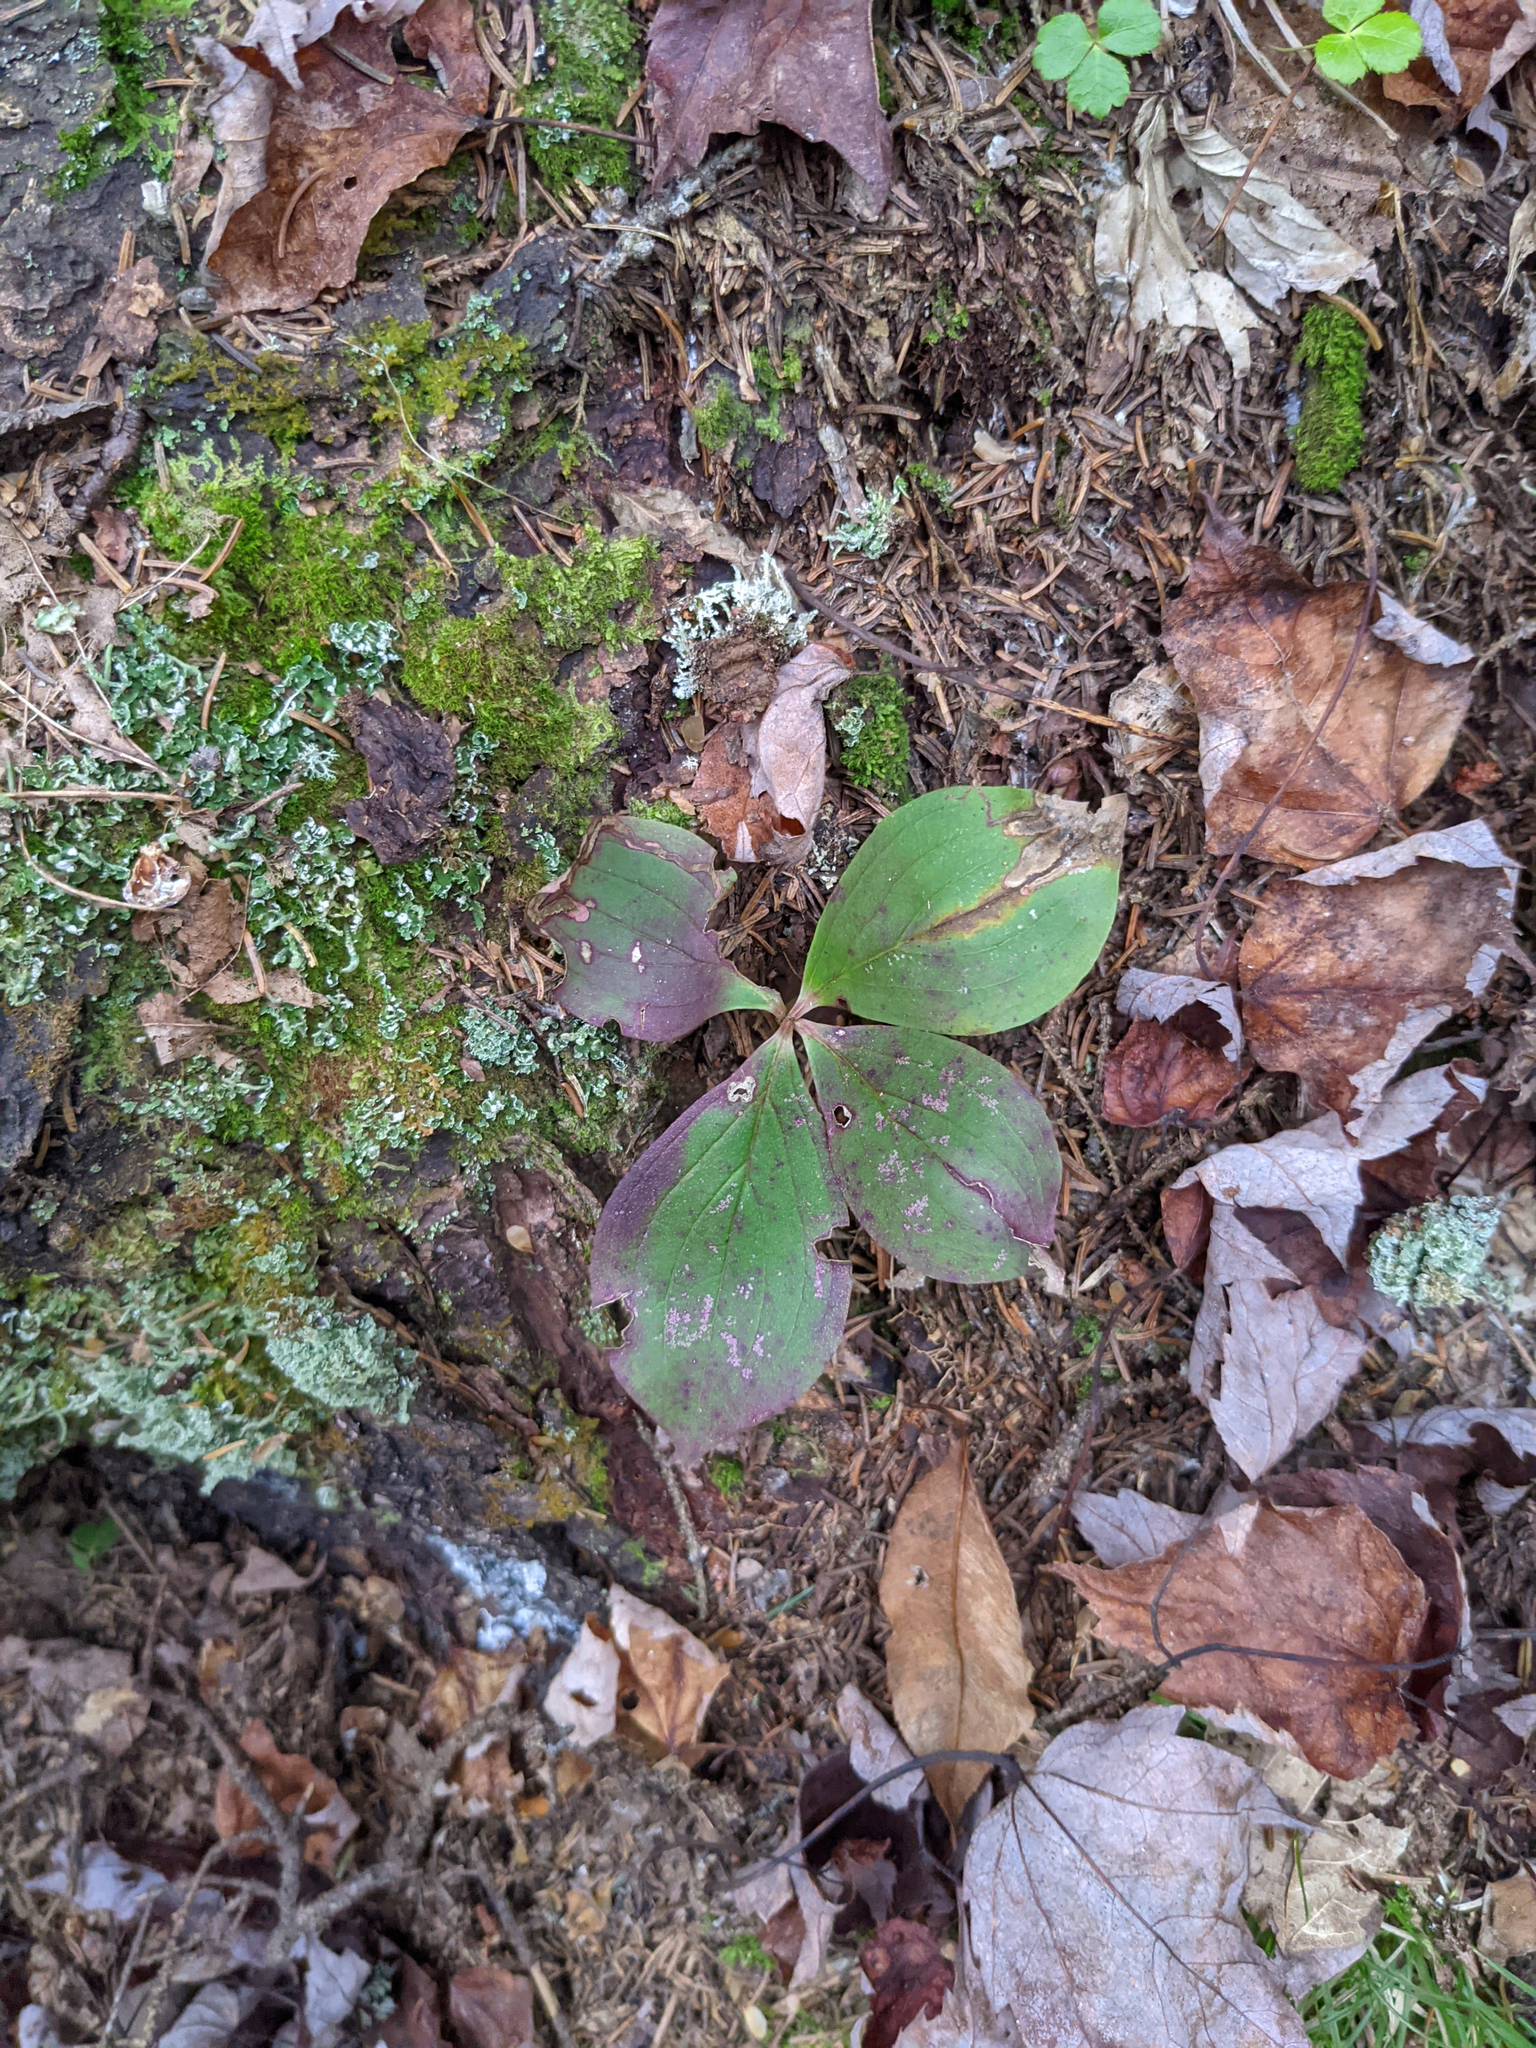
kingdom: Plantae
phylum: Tracheophyta
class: Magnoliopsida
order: Cornales
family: Cornaceae
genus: Cornus
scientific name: Cornus canadensis
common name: Creeping dogwood
